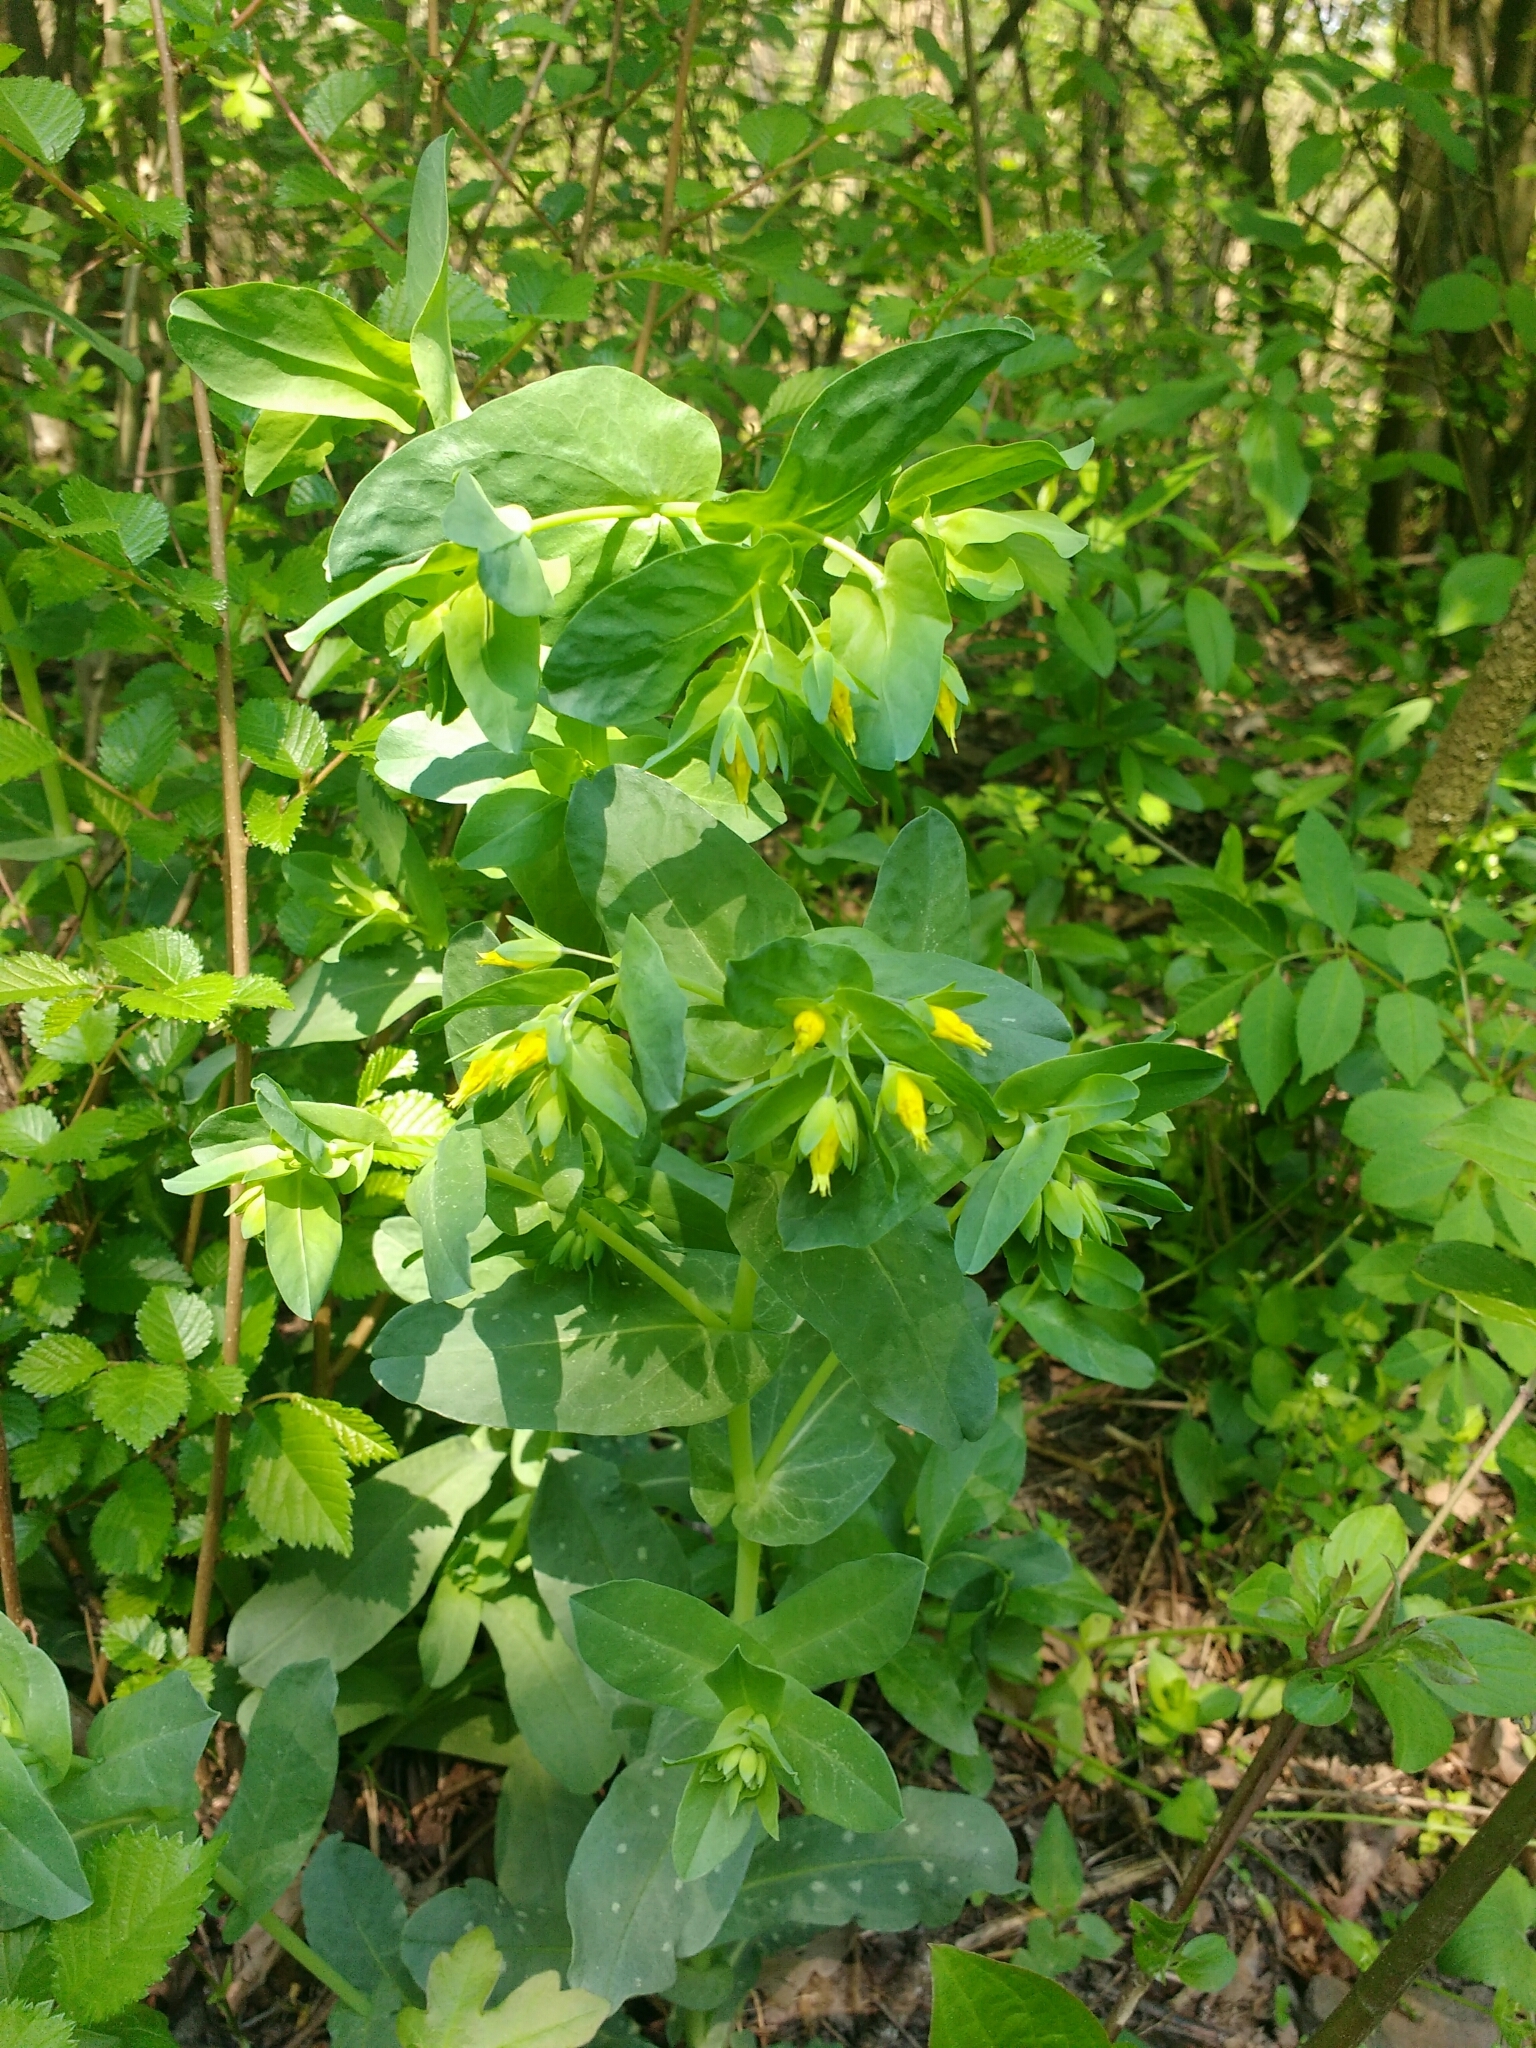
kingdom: Plantae
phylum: Tracheophyta
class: Magnoliopsida
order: Boraginales
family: Boraginaceae
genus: Cerinthe
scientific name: Cerinthe minor
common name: Lesser honeywort
